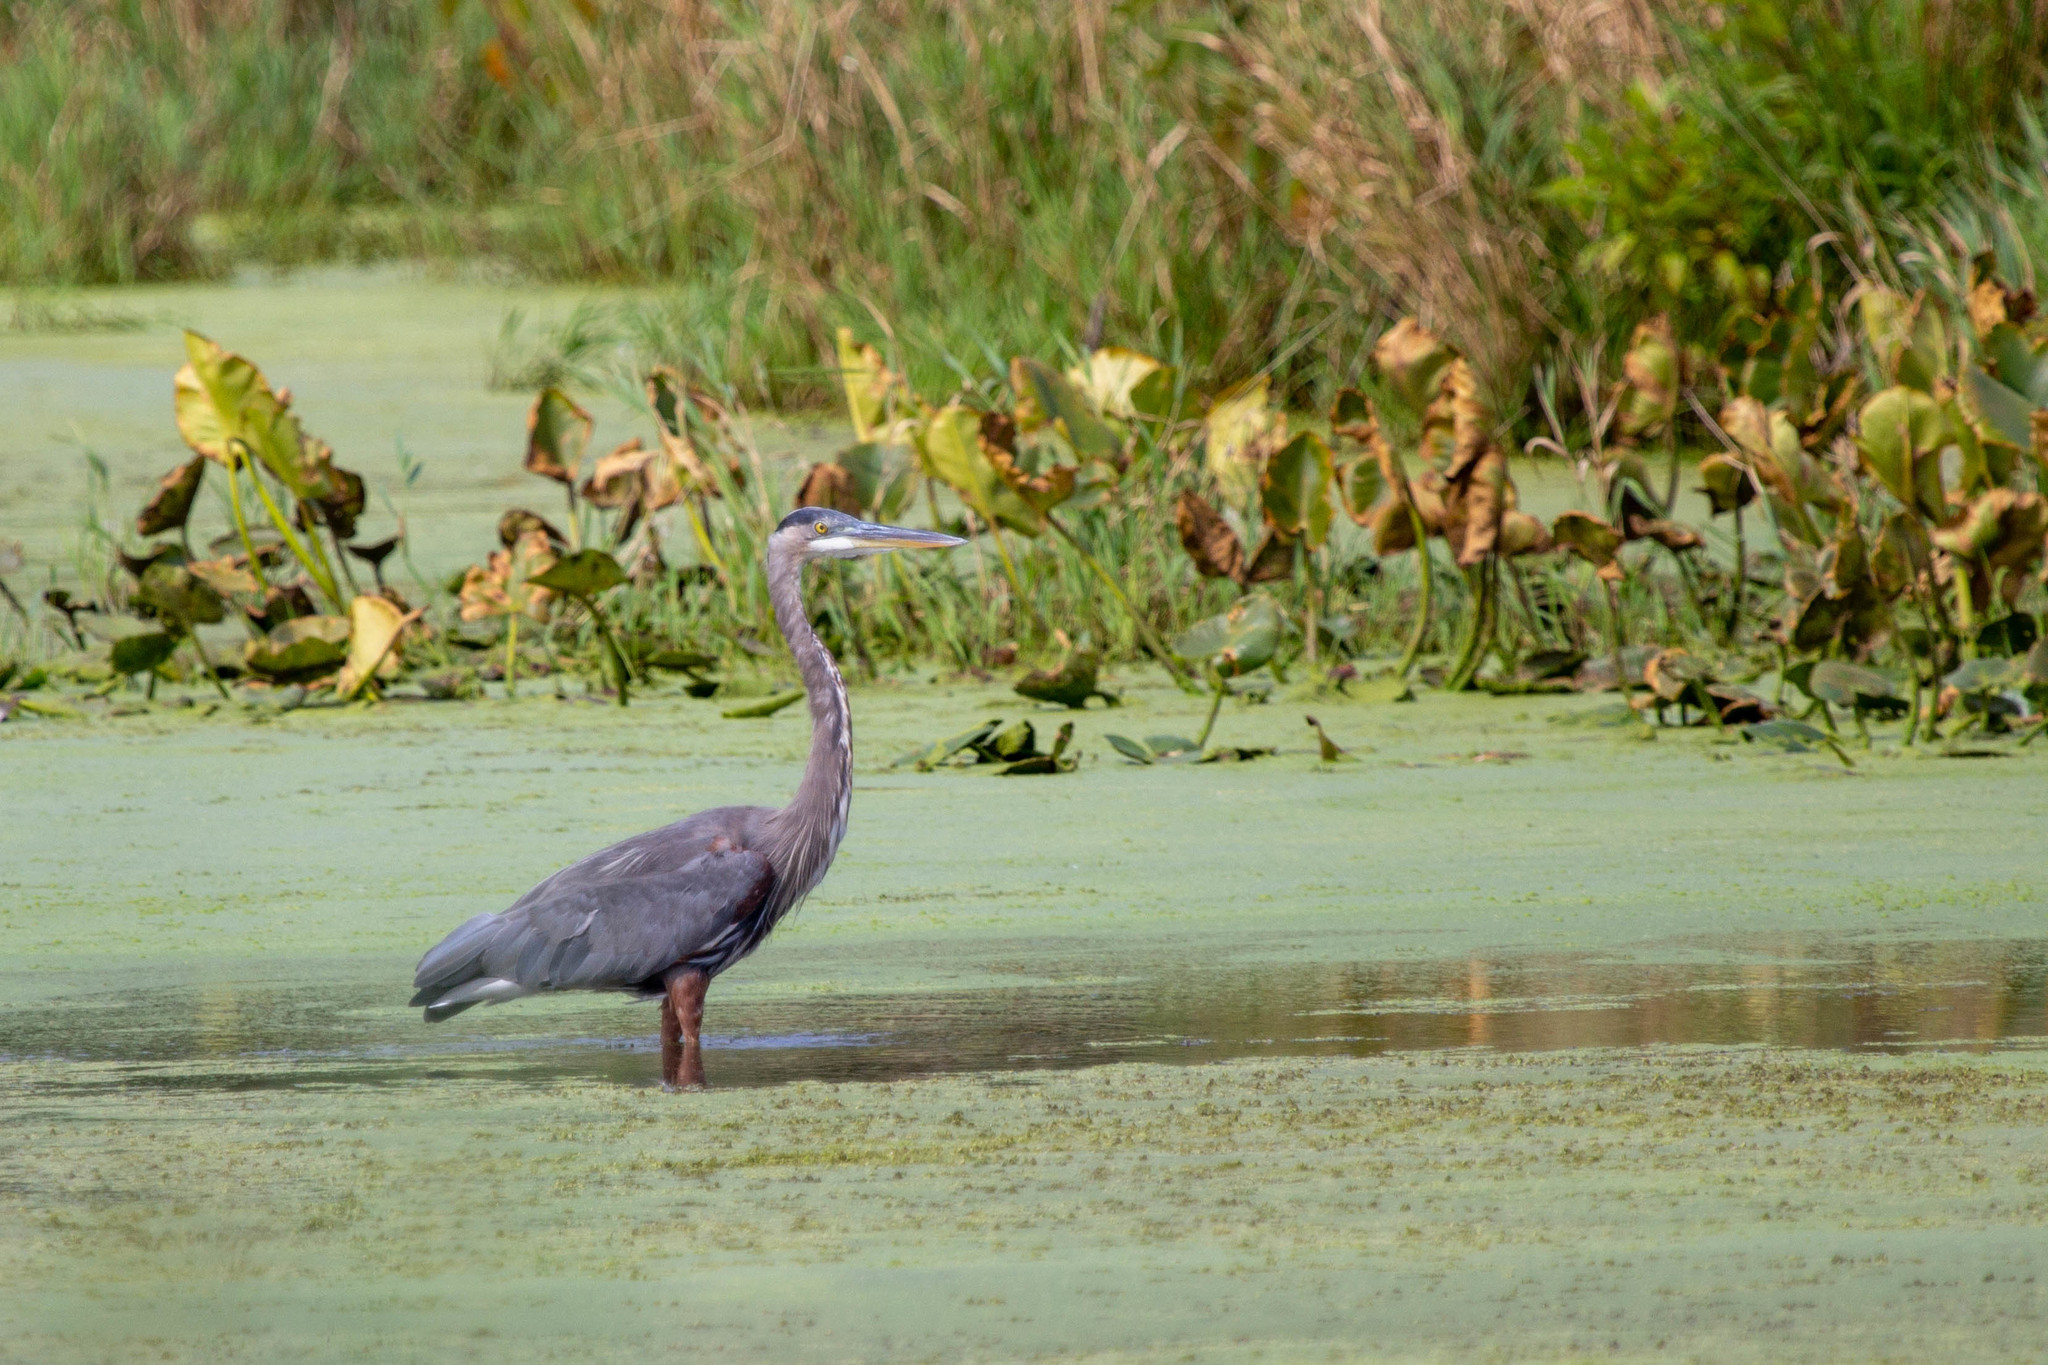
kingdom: Animalia
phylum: Chordata
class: Aves
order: Pelecaniformes
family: Ardeidae
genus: Ardea
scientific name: Ardea herodias
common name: Great blue heron
